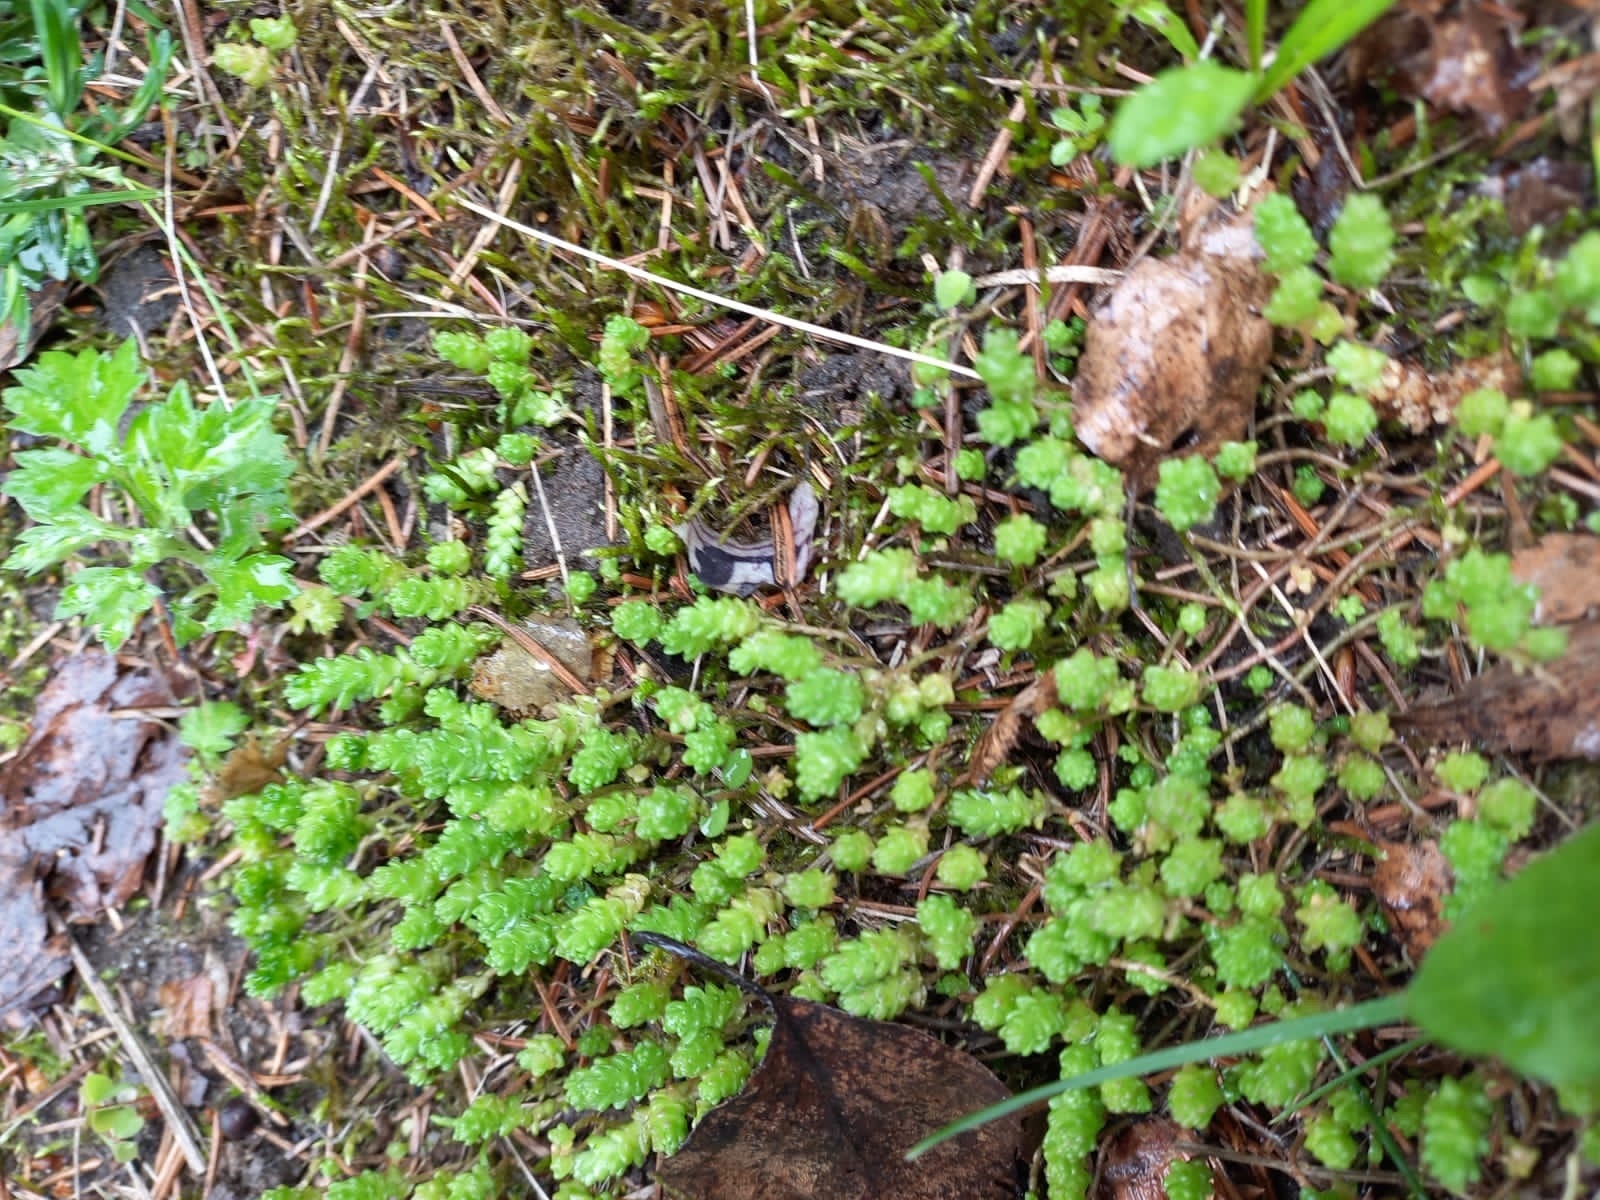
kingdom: Plantae
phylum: Tracheophyta
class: Magnoliopsida
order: Saxifragales
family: Crassulaceae
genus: Sedum
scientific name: Sedum acre
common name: Biting stonecrop
